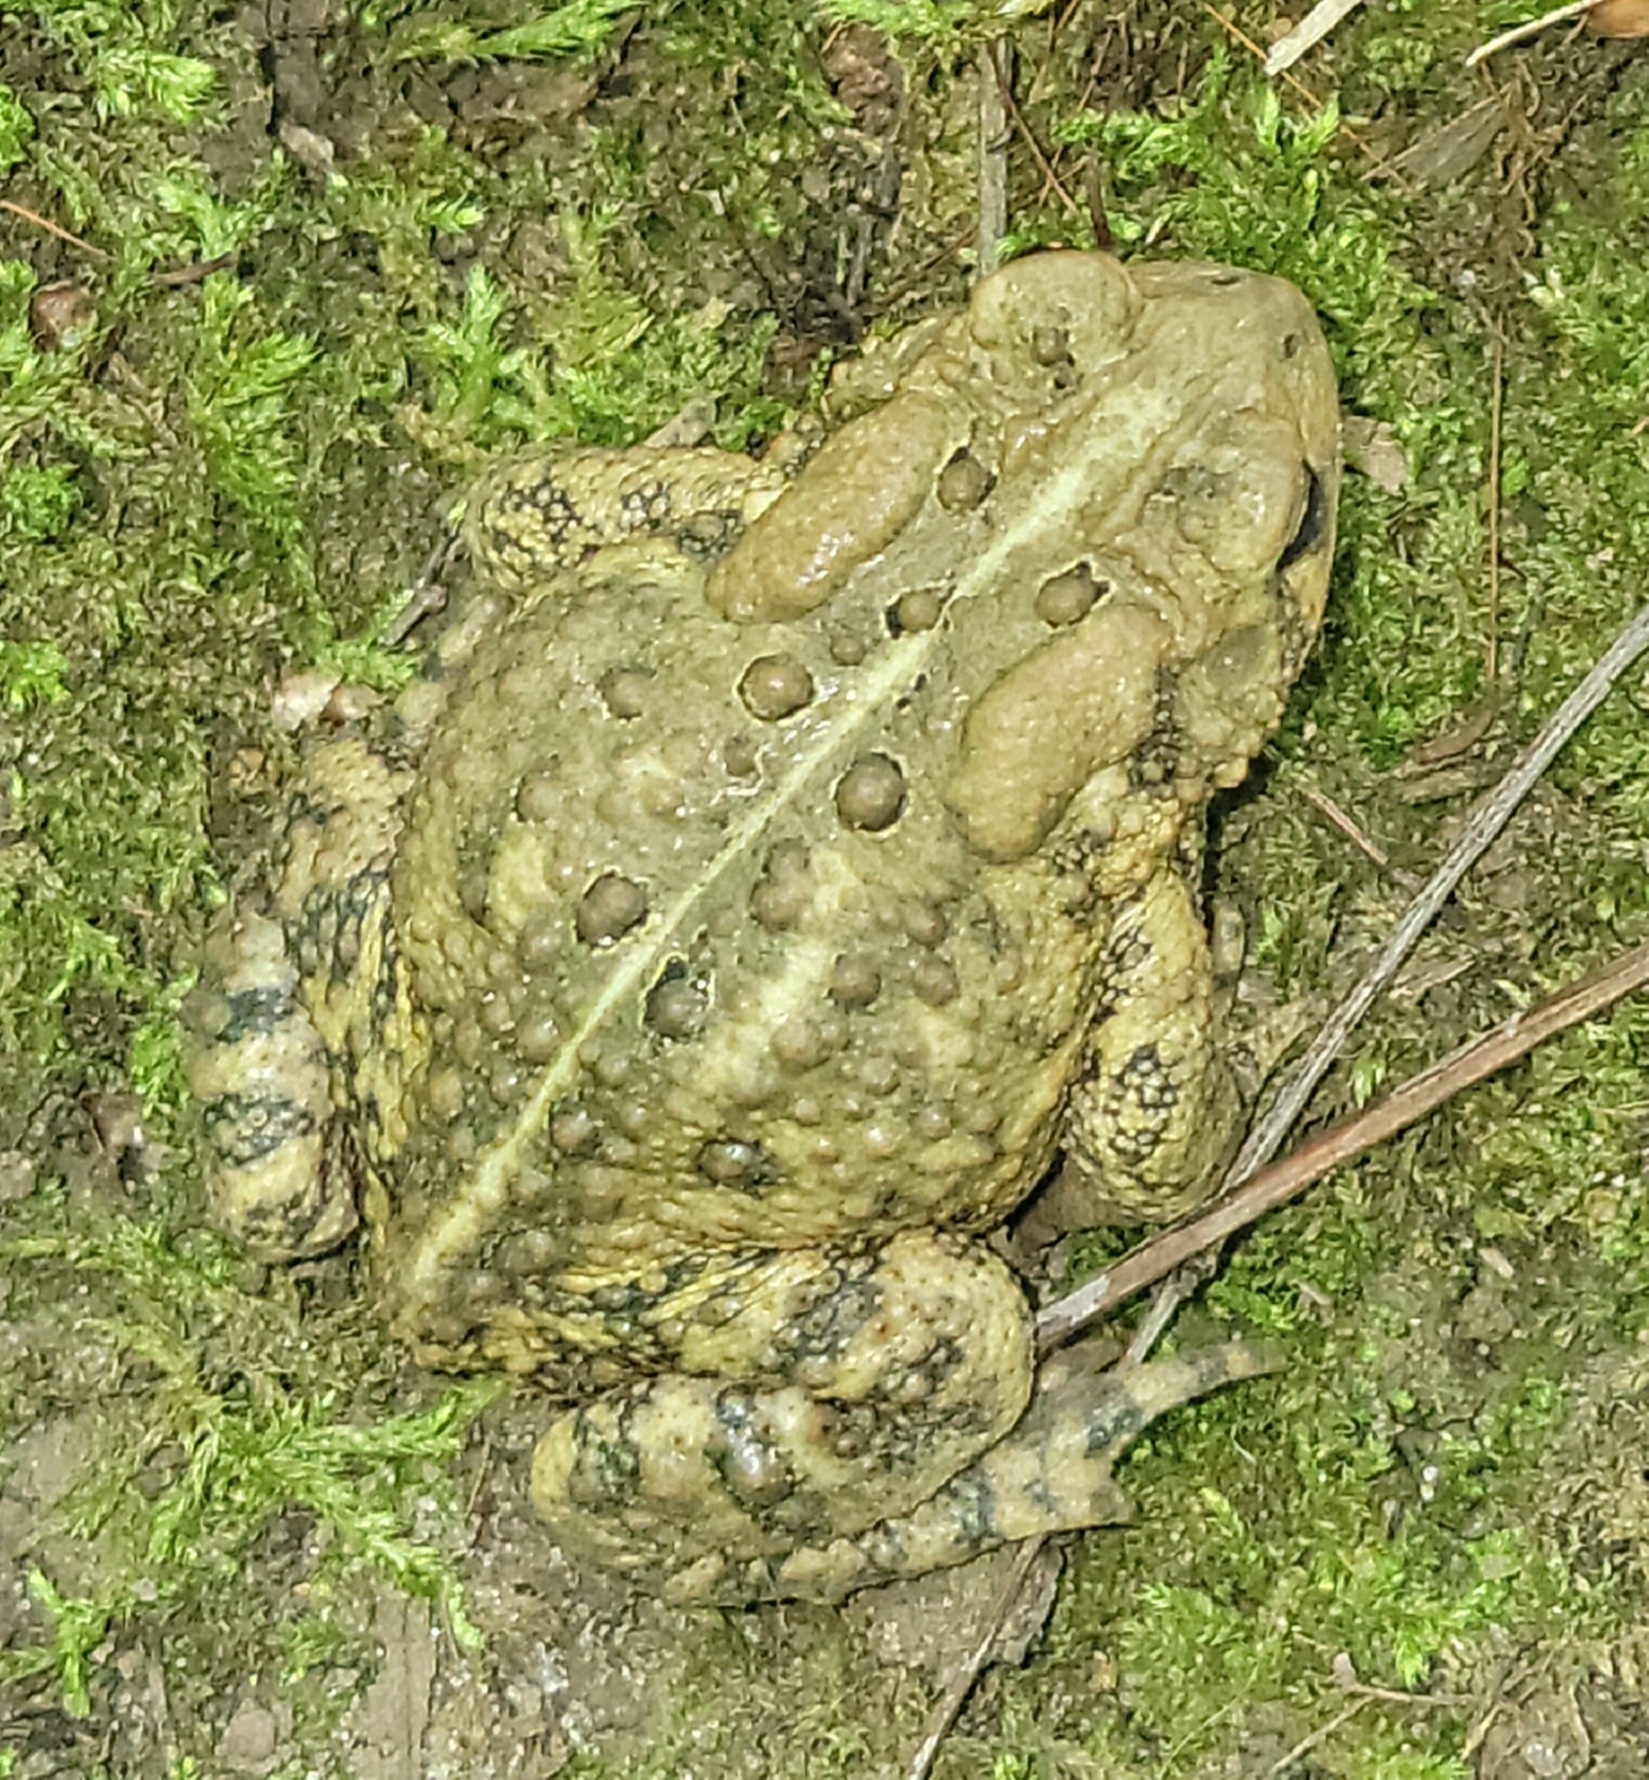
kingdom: Animalia
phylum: Chordata
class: Amphibia
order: Anura
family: Bufonidae
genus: Anaxyrus
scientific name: Anaxyrus americanus
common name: American toad
